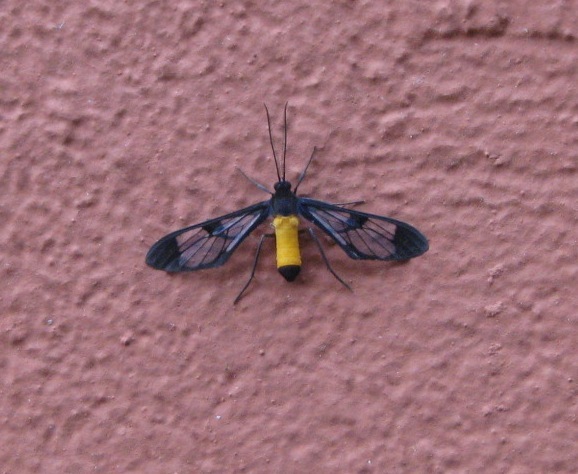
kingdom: Animalia
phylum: Arthropoda
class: Insecta
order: Lepidoptera
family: Erebidae
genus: Cosmosoma
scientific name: Cosmosoma stibosticta
